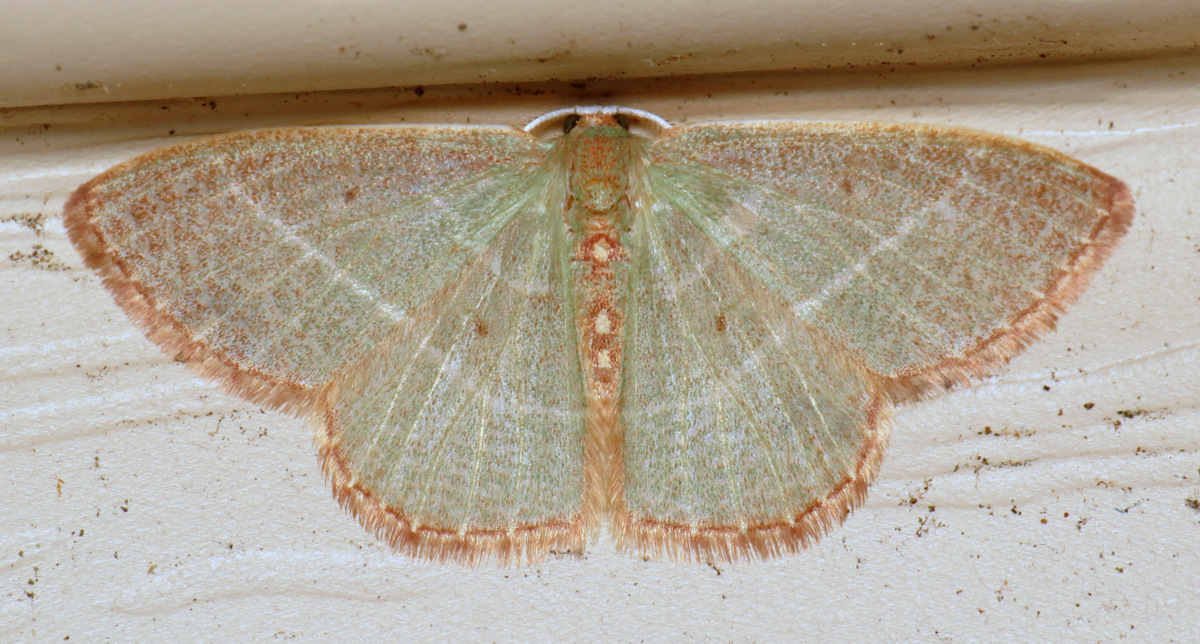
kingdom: Animalia
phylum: Arthropoda
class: Insecta
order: Lepidoptera
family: Geometridae
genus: Nemoria
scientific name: Nemoria bistriaria
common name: Red-fringed emerald
